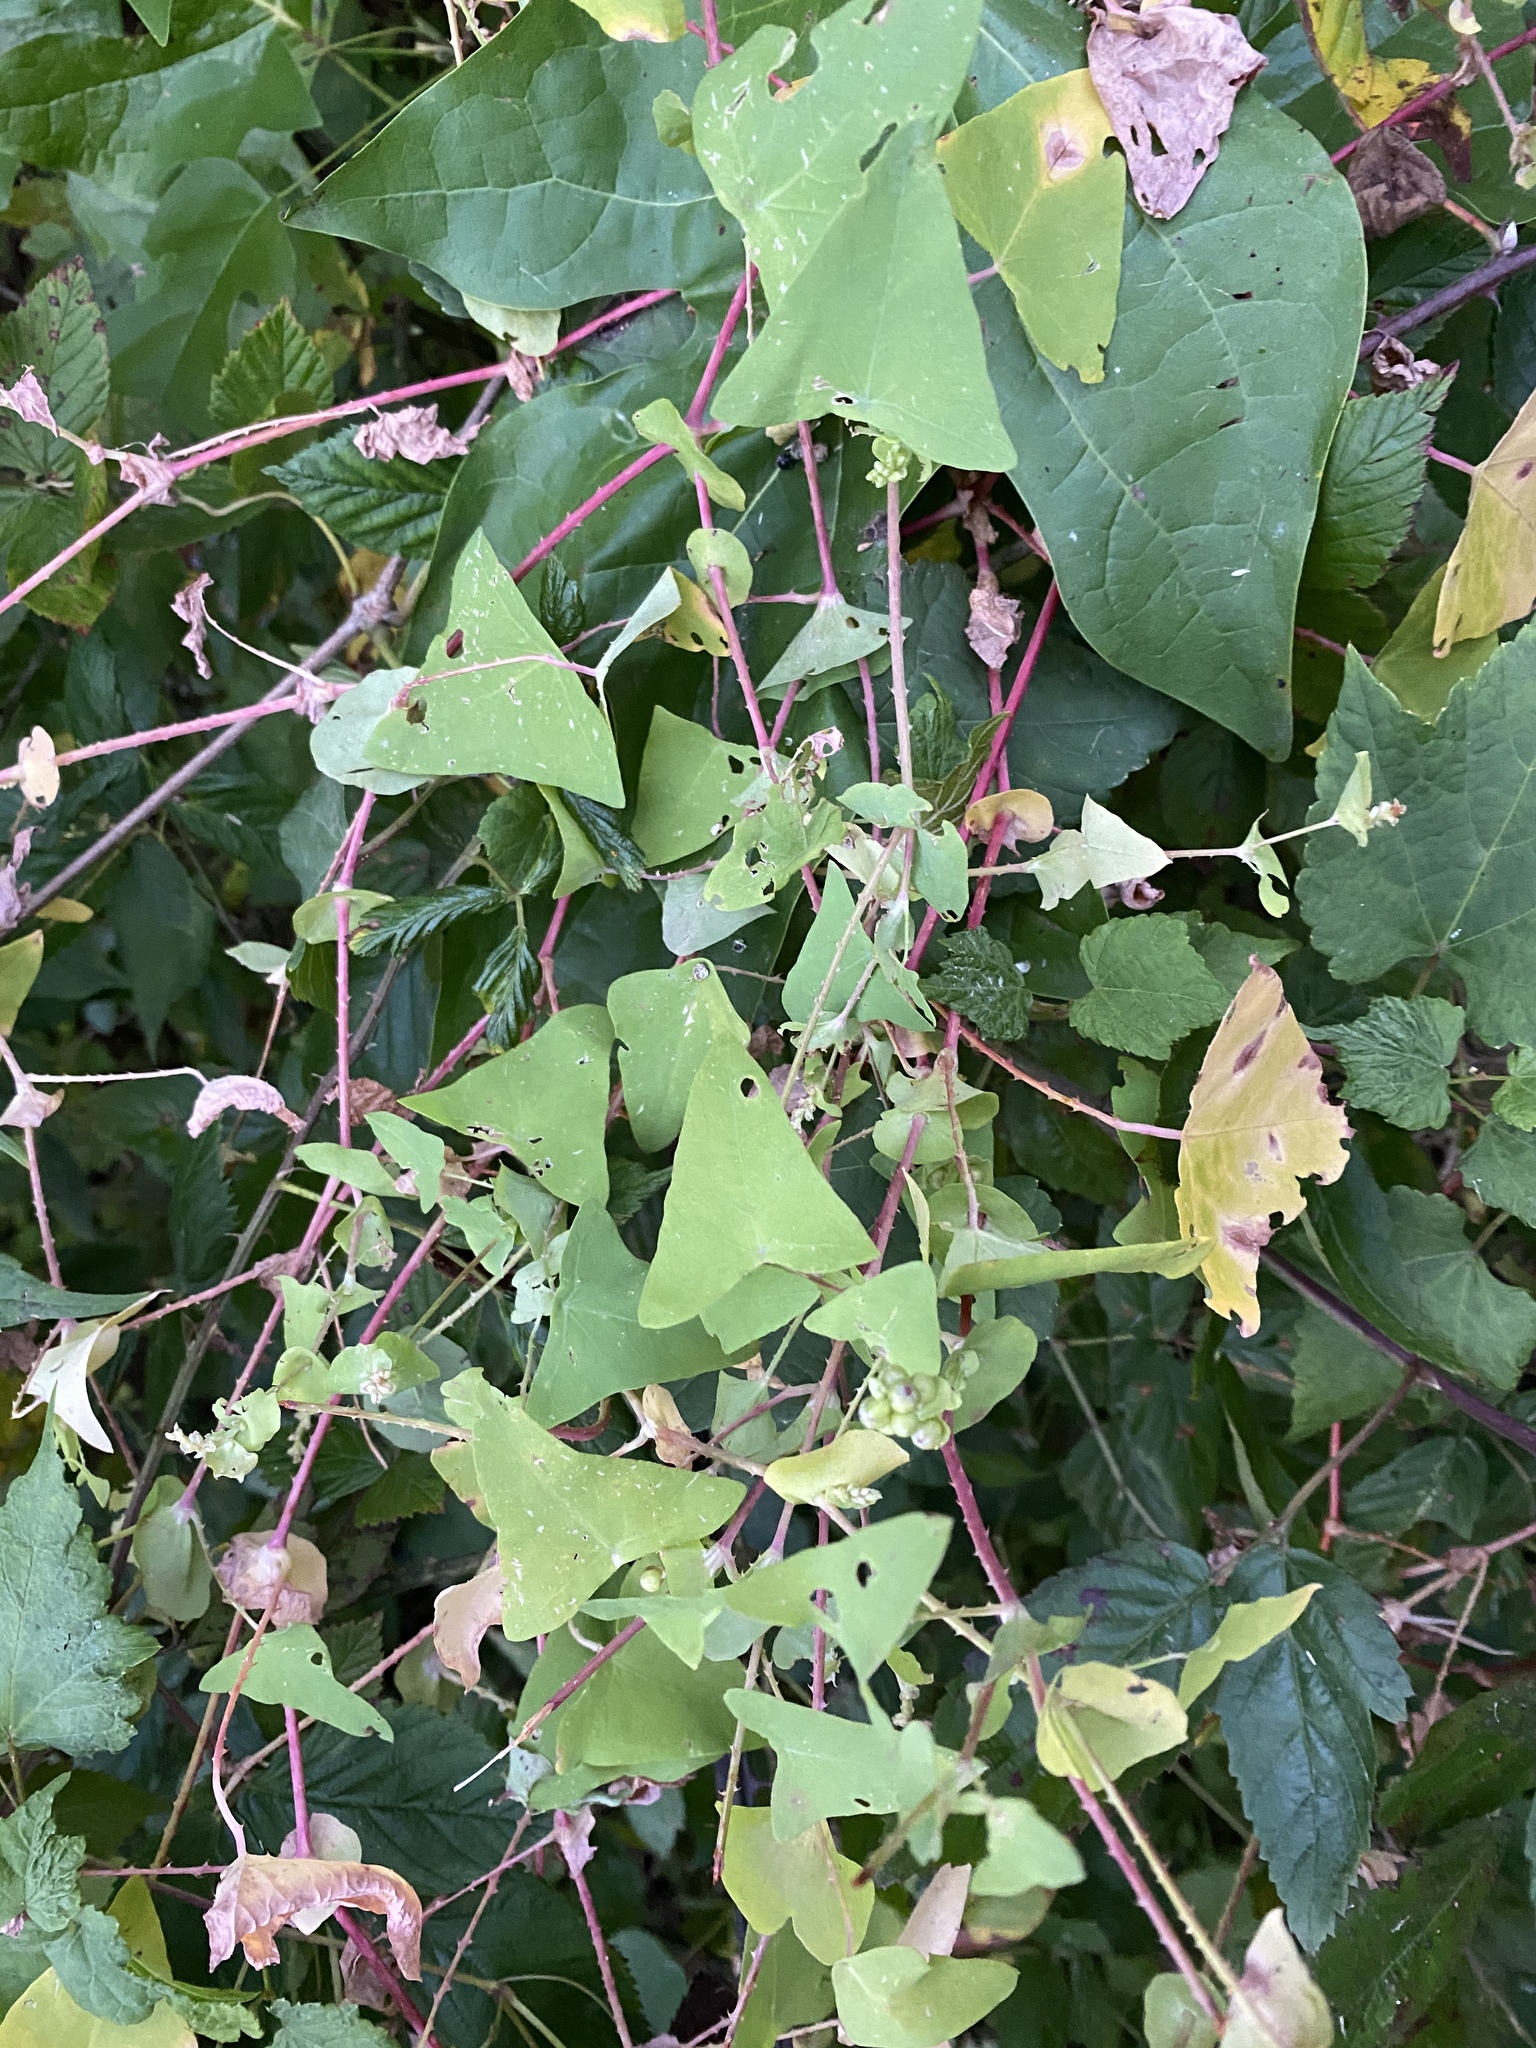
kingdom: Plantae
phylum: Tracheophyta
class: Magnoliopsida
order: Caryophyllales
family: Polygonaceae
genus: Persicaria
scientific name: Persicaria perfoliata
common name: Asiatic tearthumb
